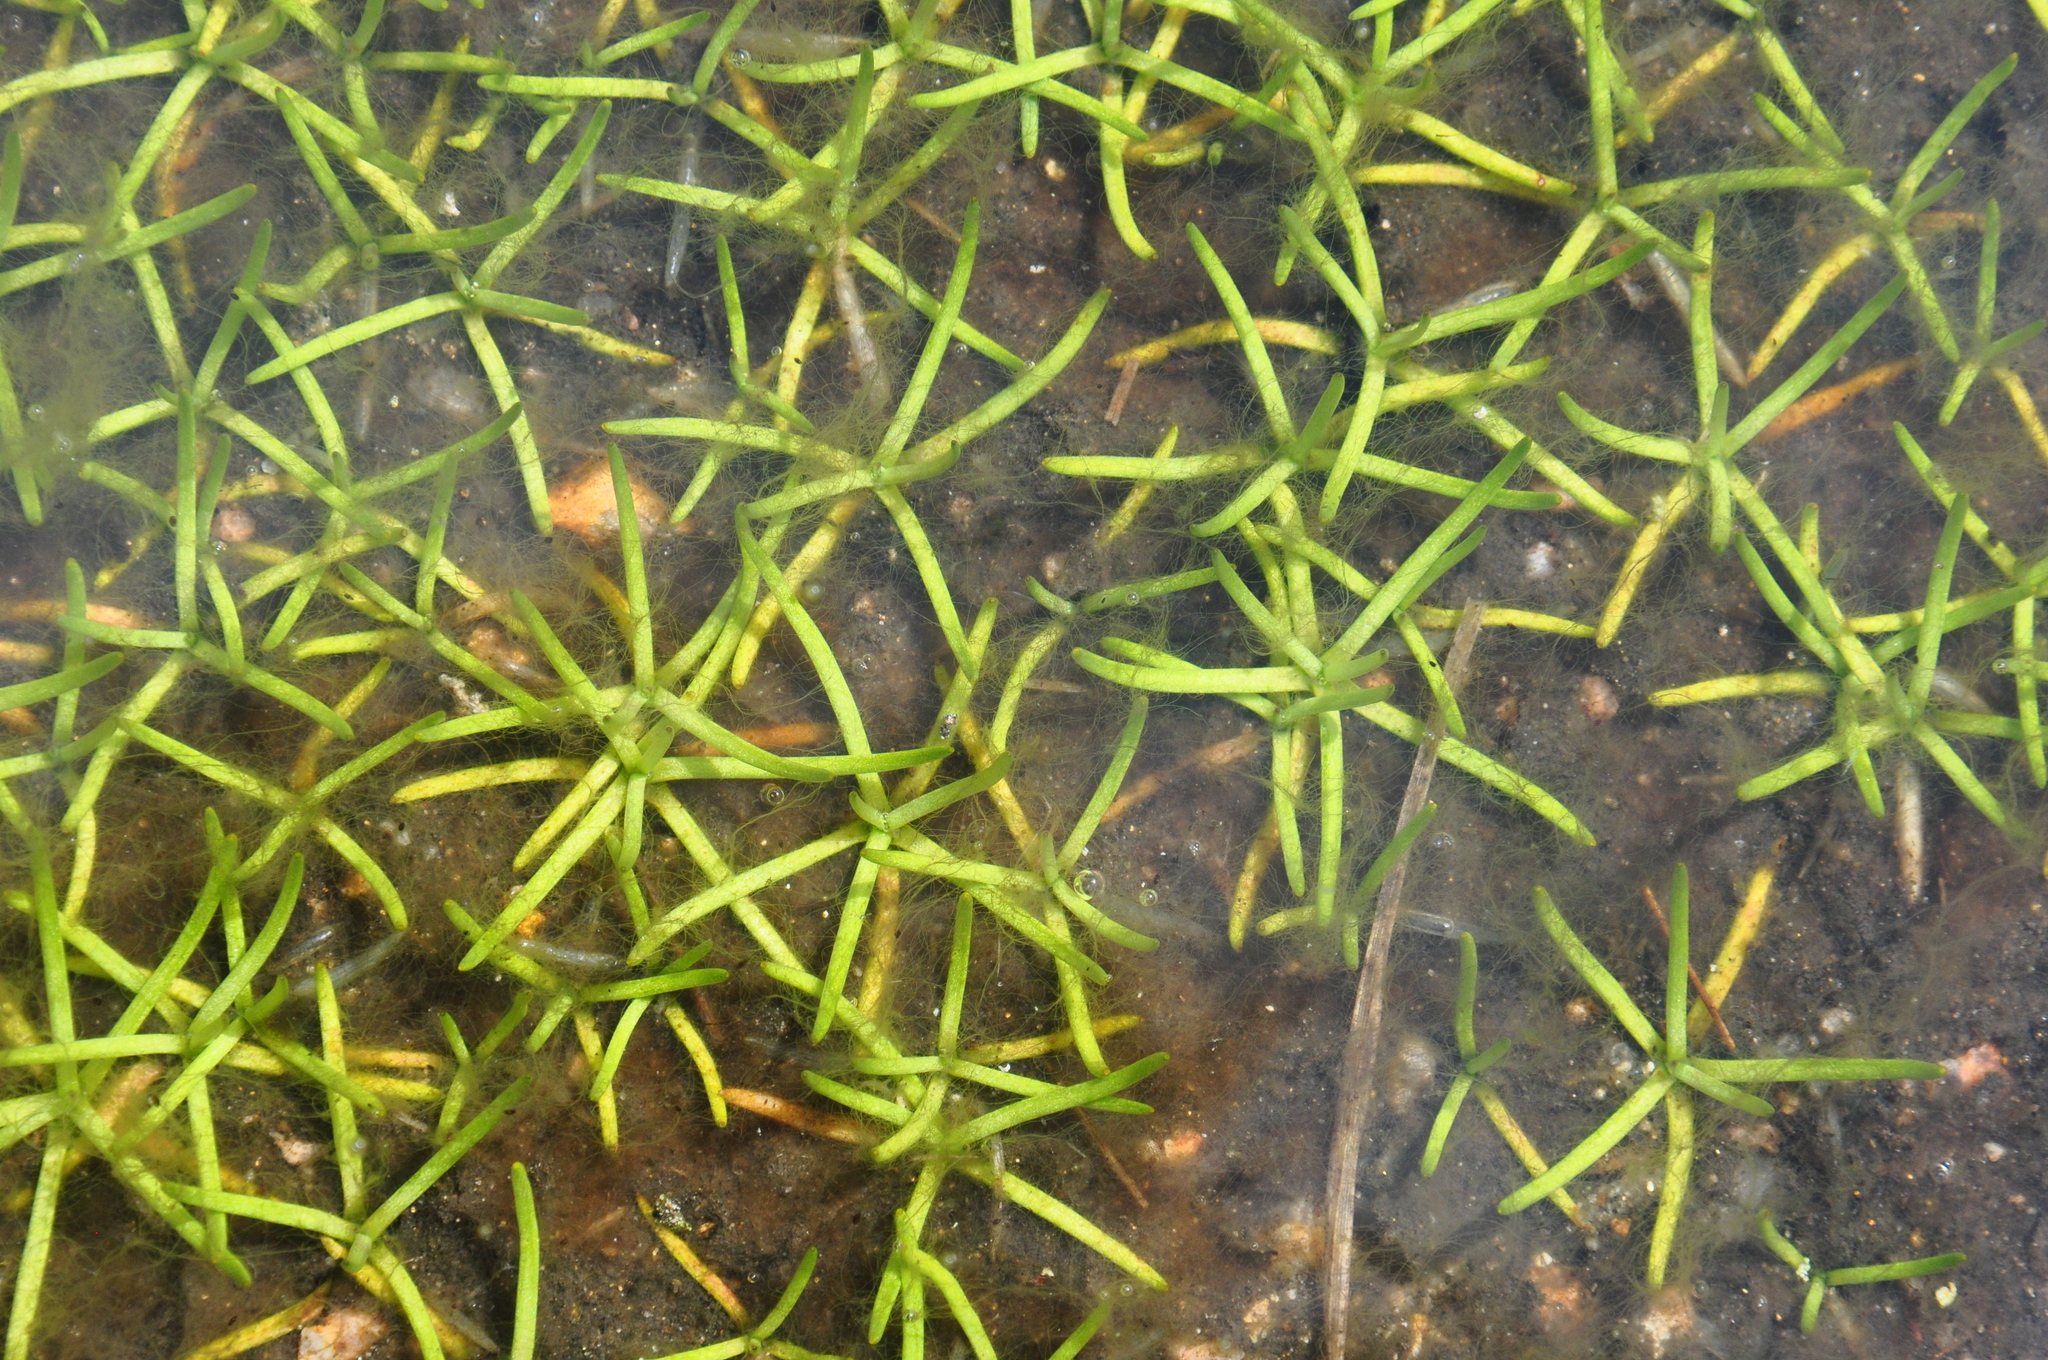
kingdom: Plantae
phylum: Tracheophyta
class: Magnoliopsida
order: Lamiales
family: Plantaginaceae
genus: Littorella
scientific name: Littorella uniflora
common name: Shoreweed
